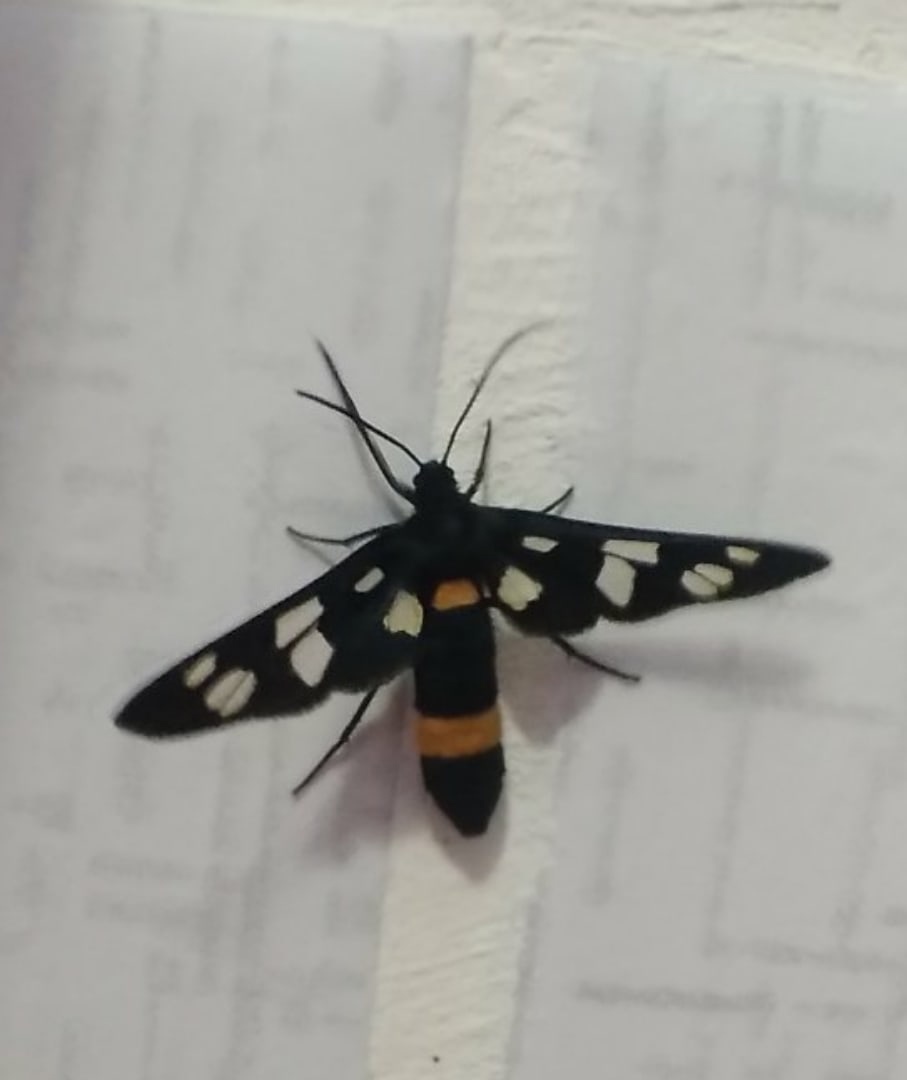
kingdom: Animalia
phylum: Arthropoda
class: Insecta
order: Lepidoptera
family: Erebidae
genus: Amata
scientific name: Amata caspia
